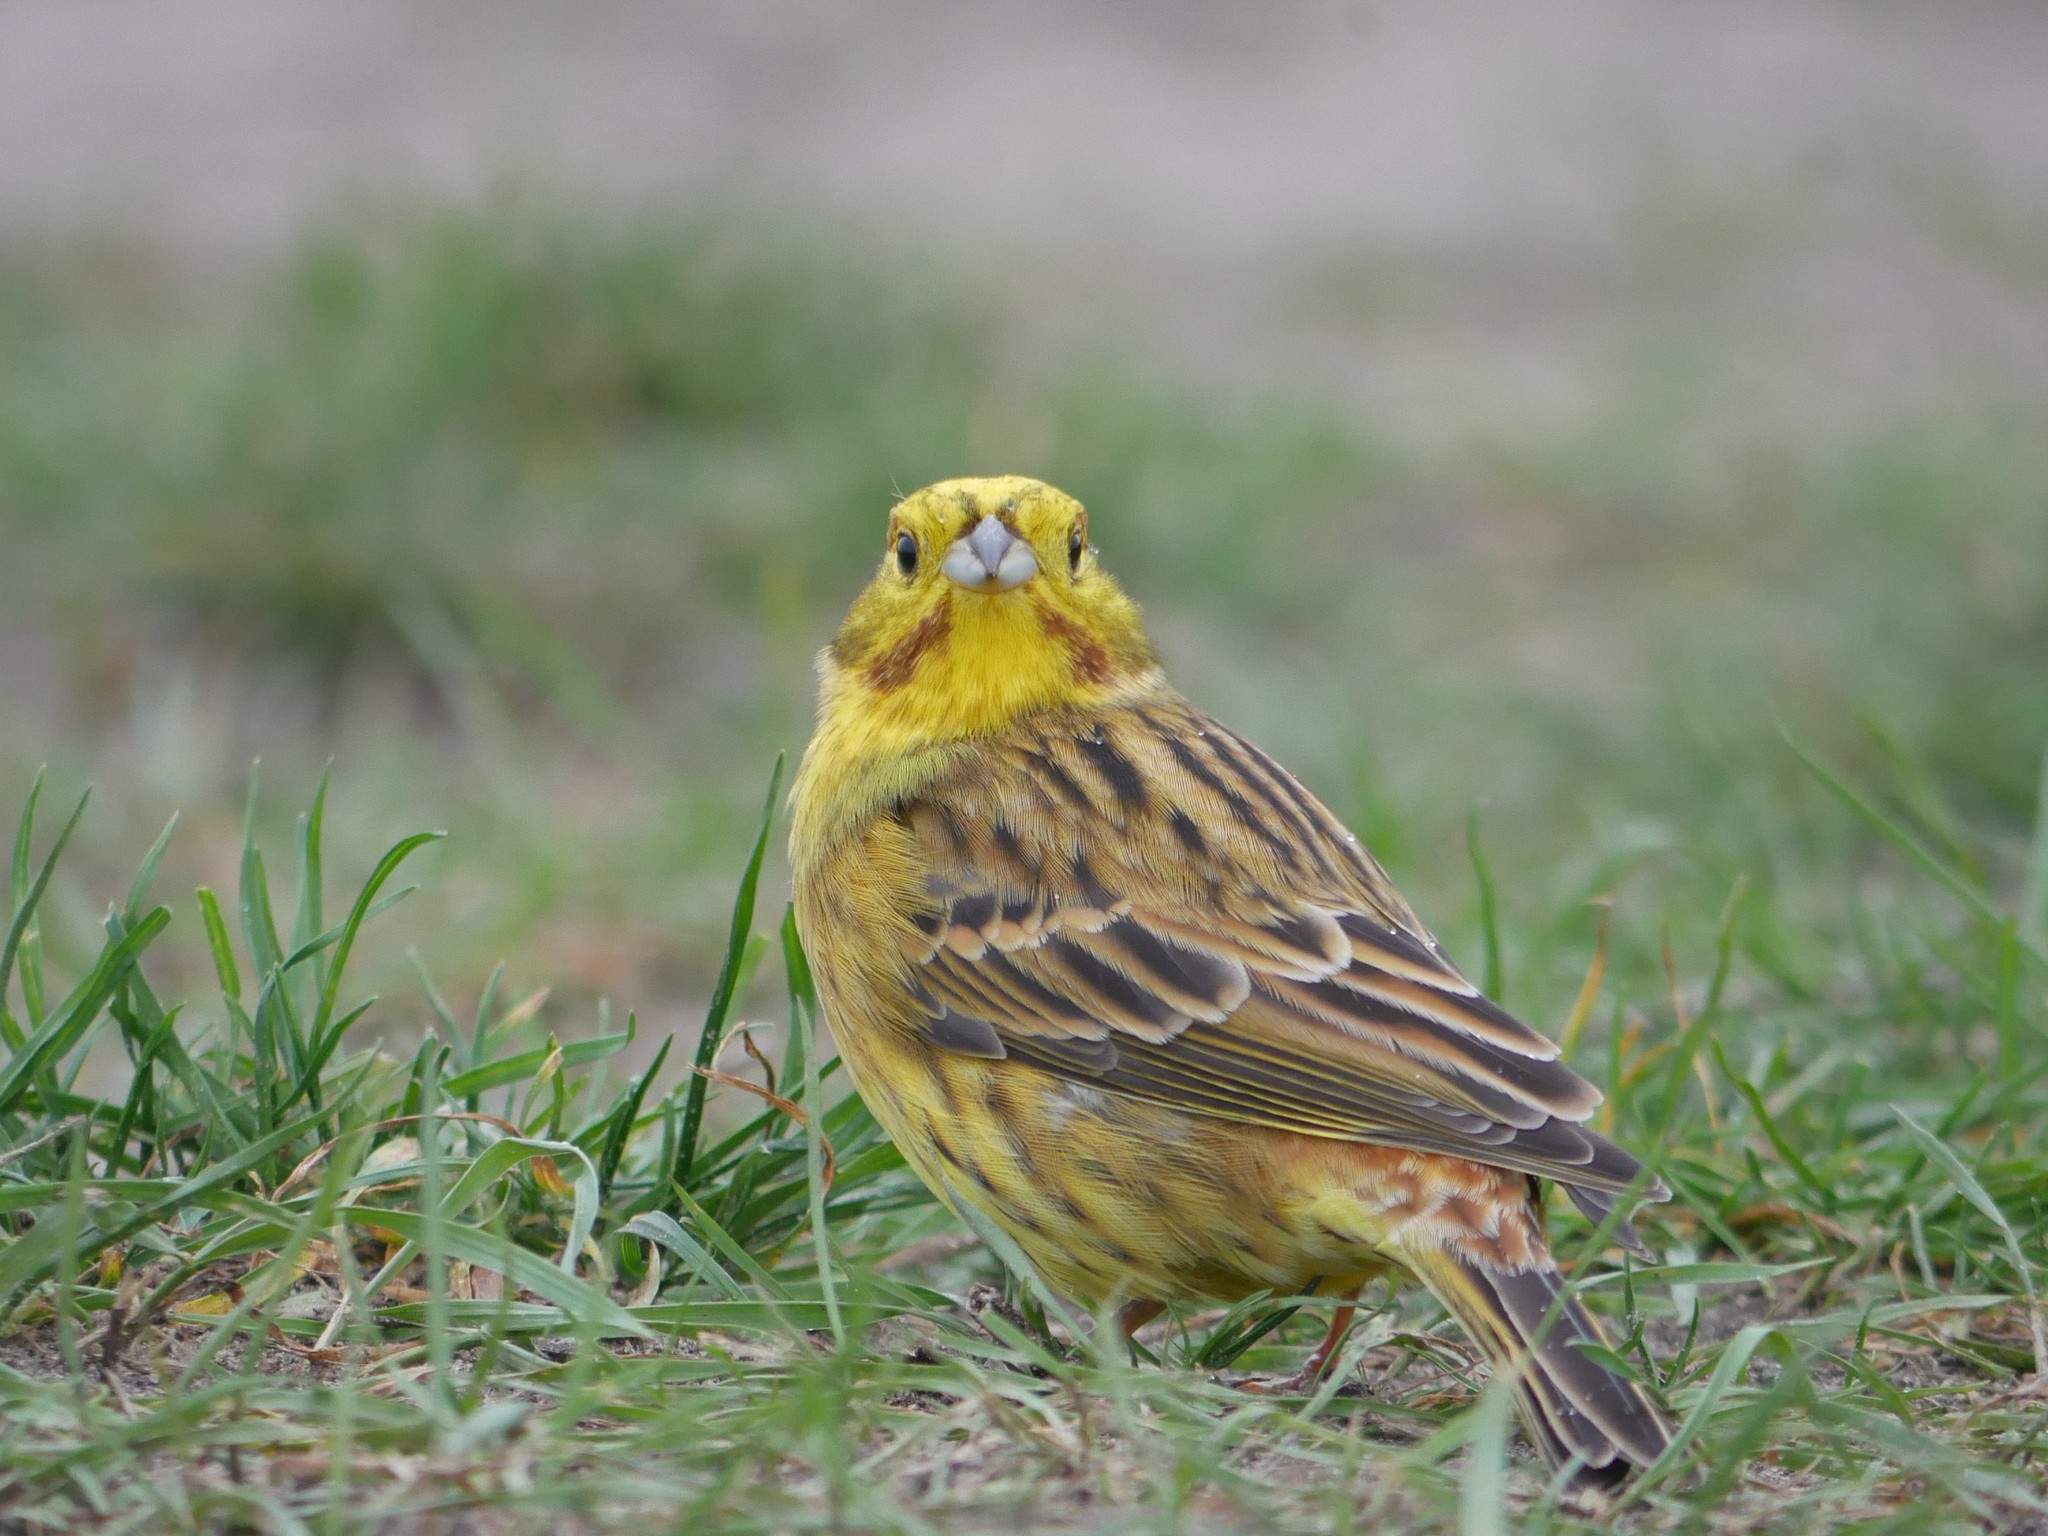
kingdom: Animalia
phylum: Chordata
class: Aves
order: Passeriformes
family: Emberizidae
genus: Emberiza
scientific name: Emberiza citrinella
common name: Yellowhammer
